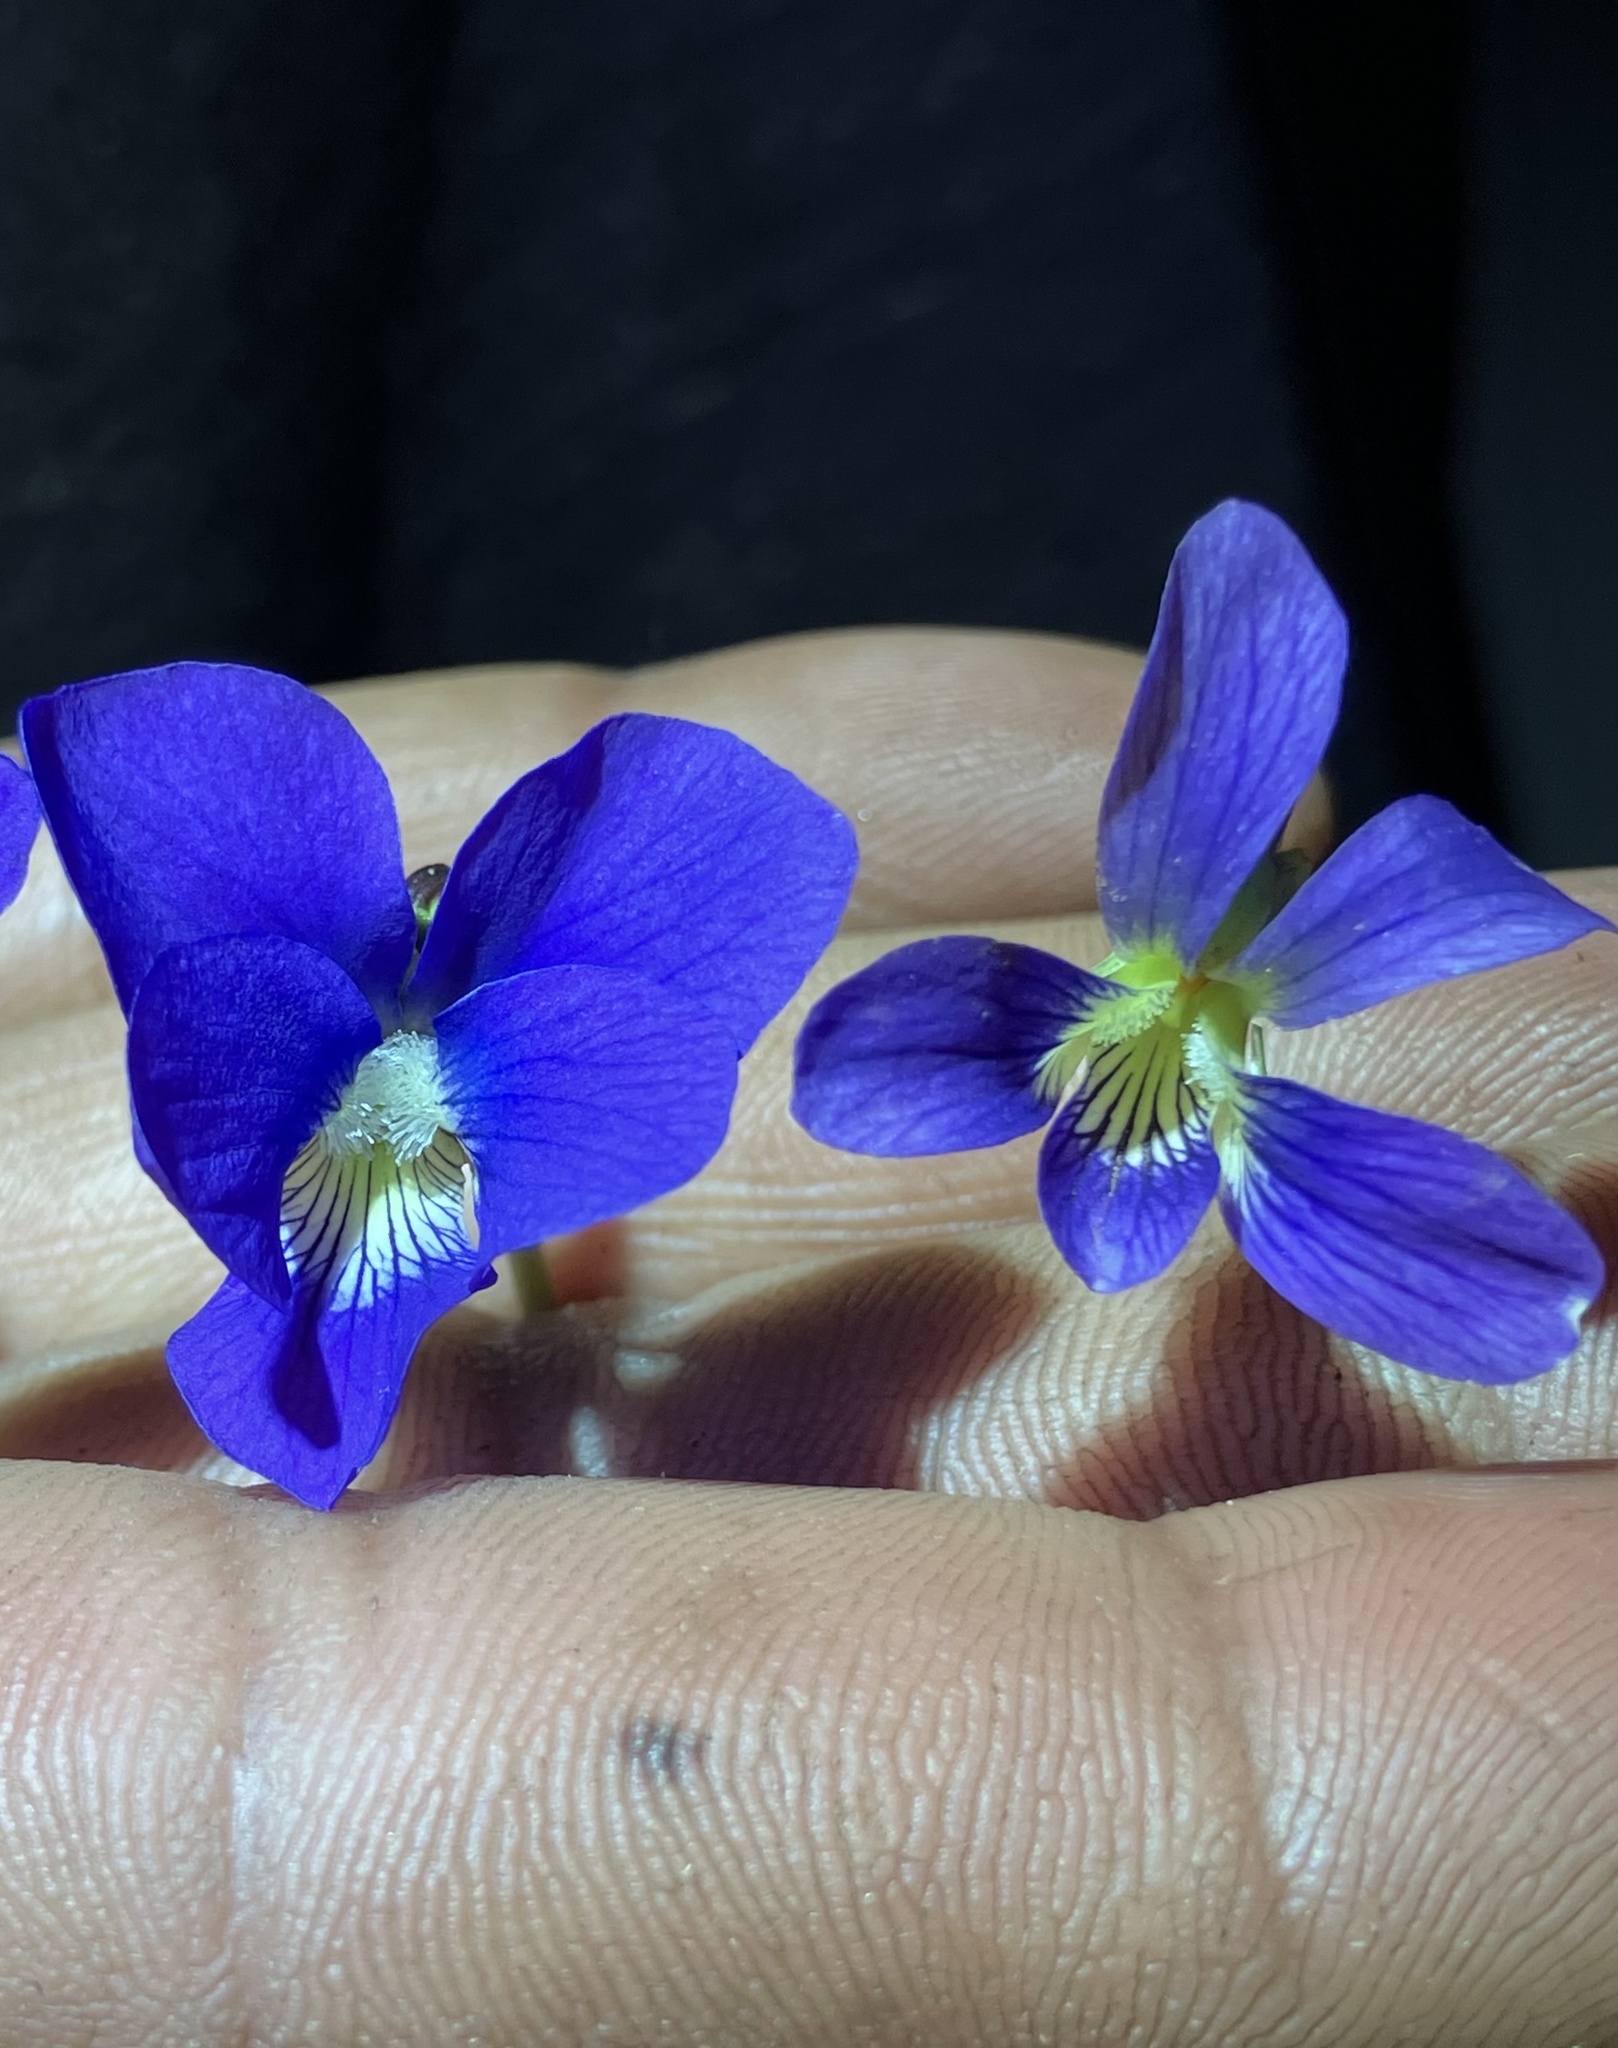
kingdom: Plantae
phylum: Tracheophyta
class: Magnoliopsida
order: Malpighiales
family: Violaceae
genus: Viola
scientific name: Viola cucullata
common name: Marsh blue violet
